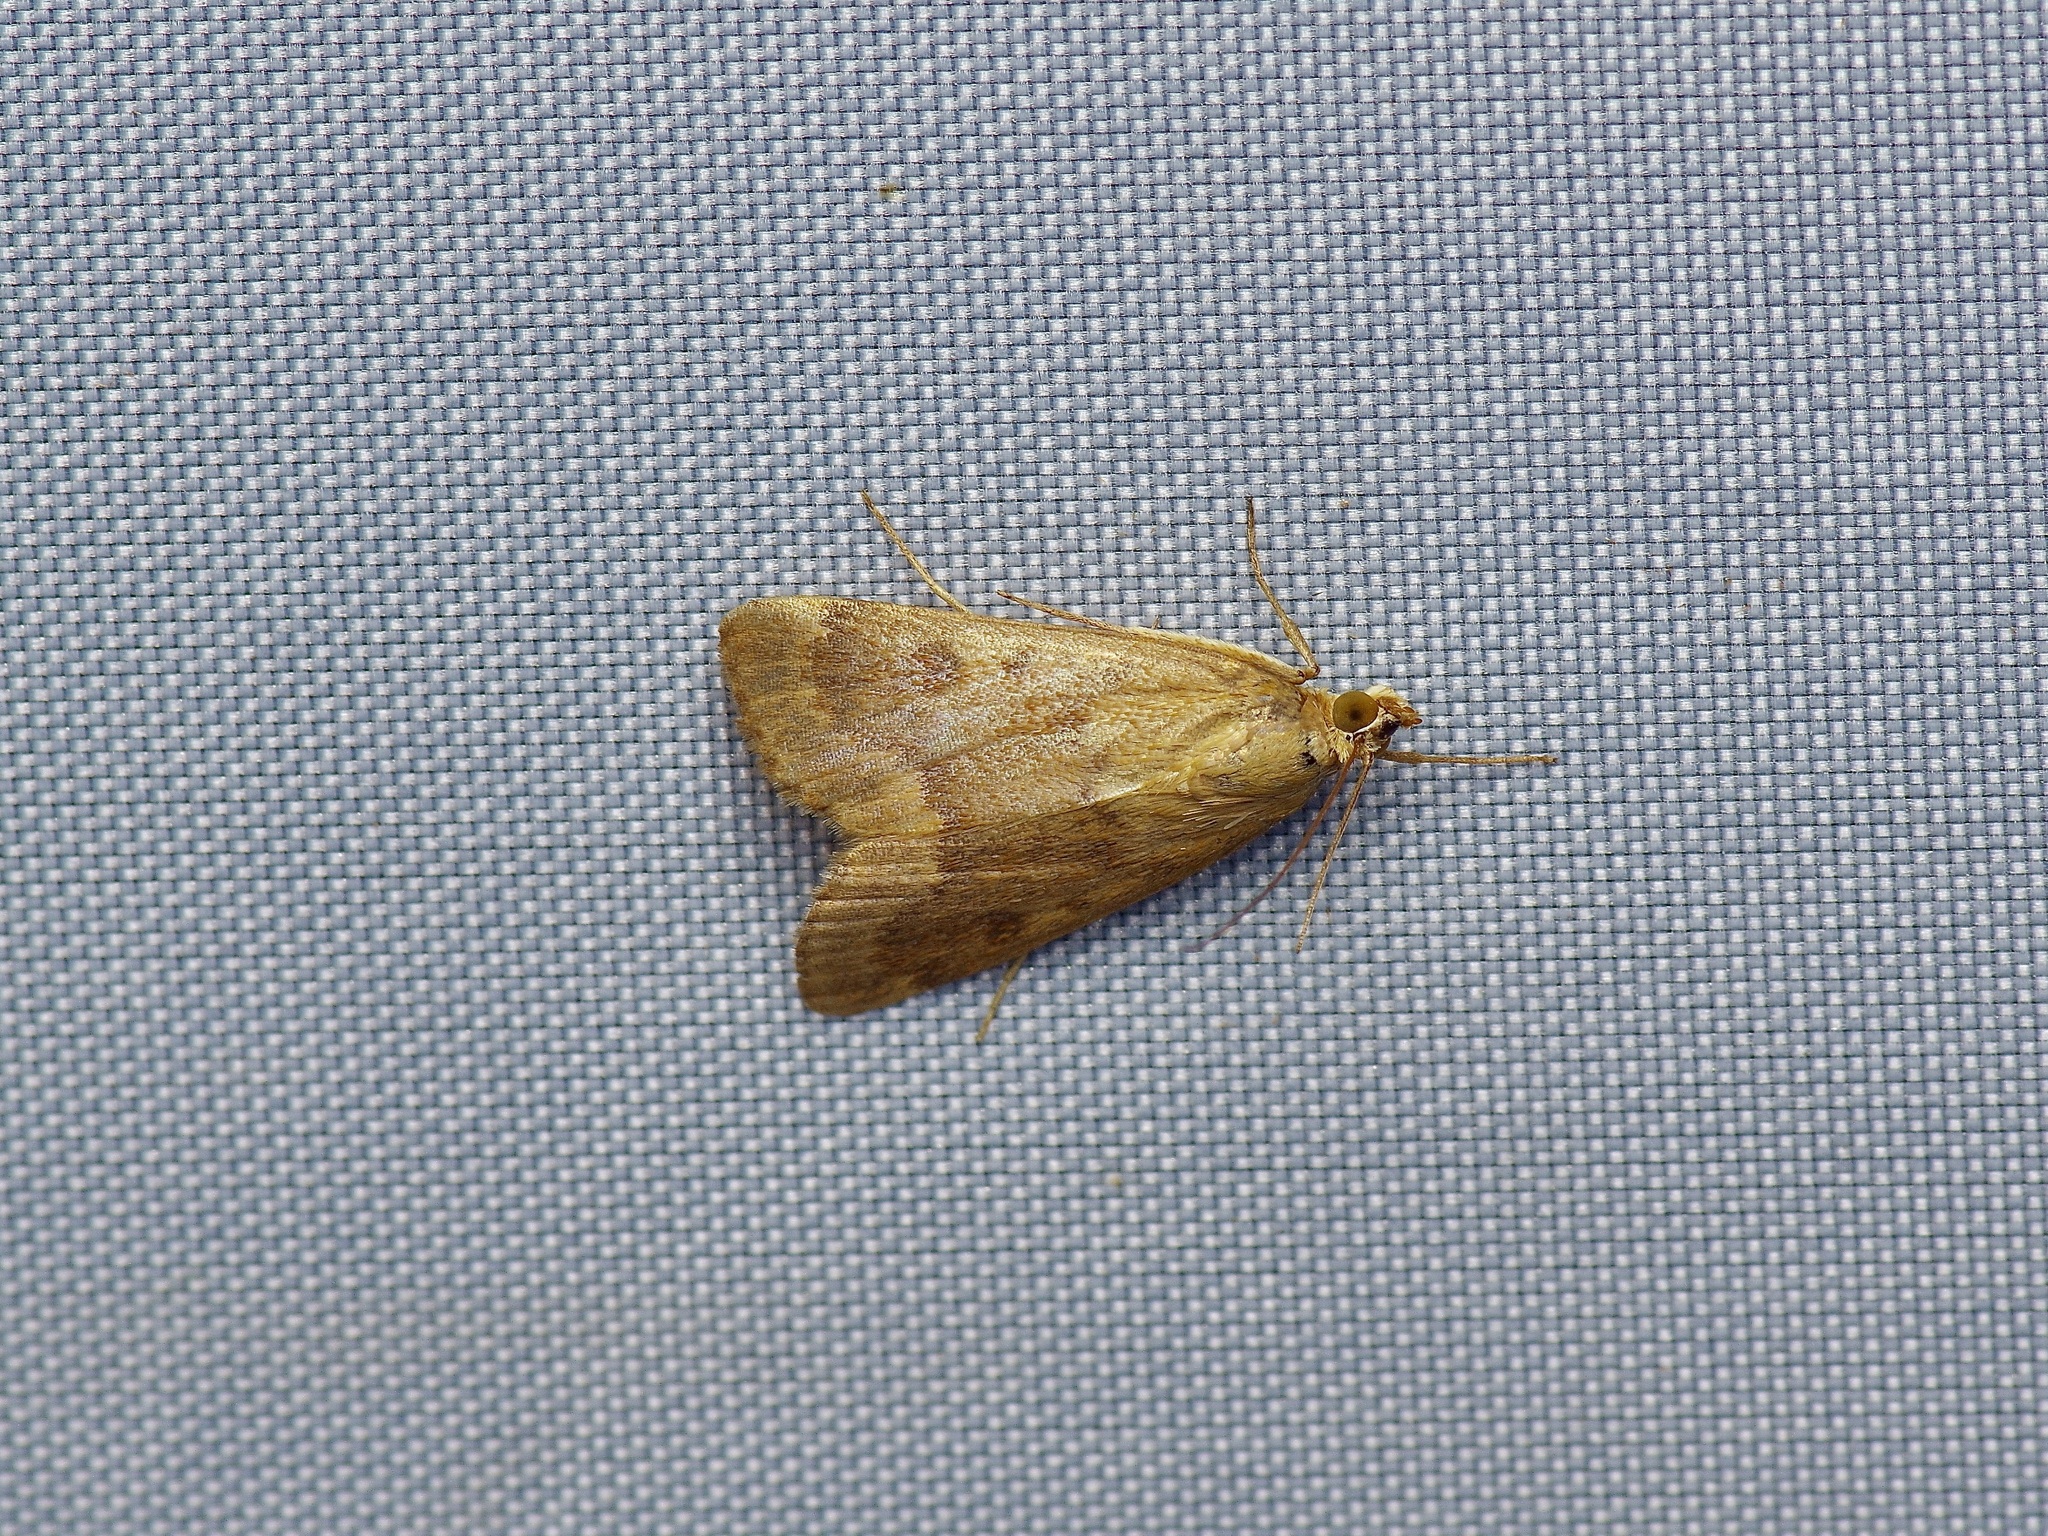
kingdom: Animalia
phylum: Arthropoda
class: Insecta
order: Lepidoptera
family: Crambidae
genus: Achyra
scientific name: Achyra rantalis
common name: Garden webworm
